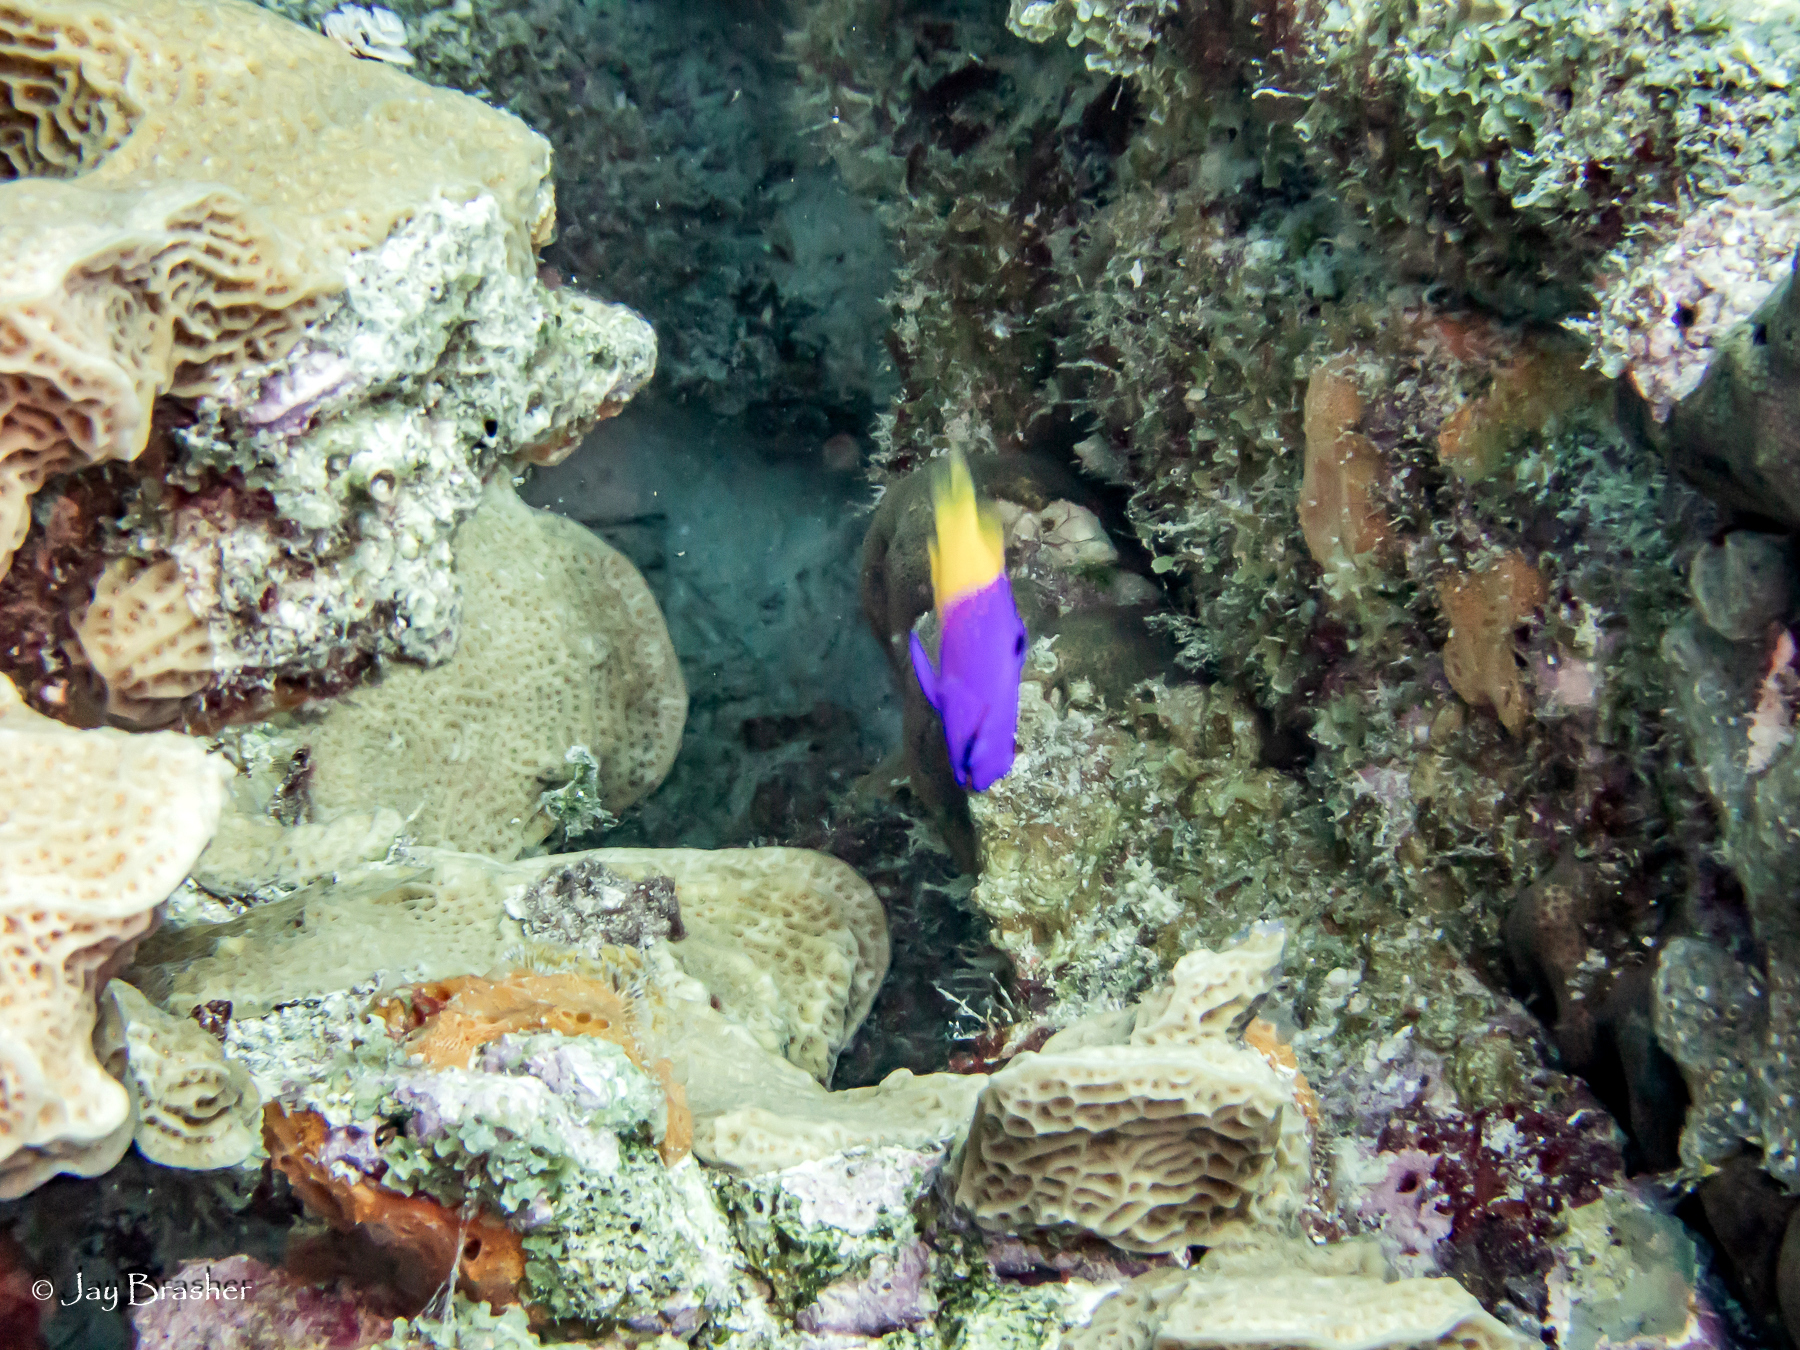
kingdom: Animalia
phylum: Chordata
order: Perciformes
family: Grammatidae
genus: Gramma
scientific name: Gramma loreto
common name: Fairy basslet
